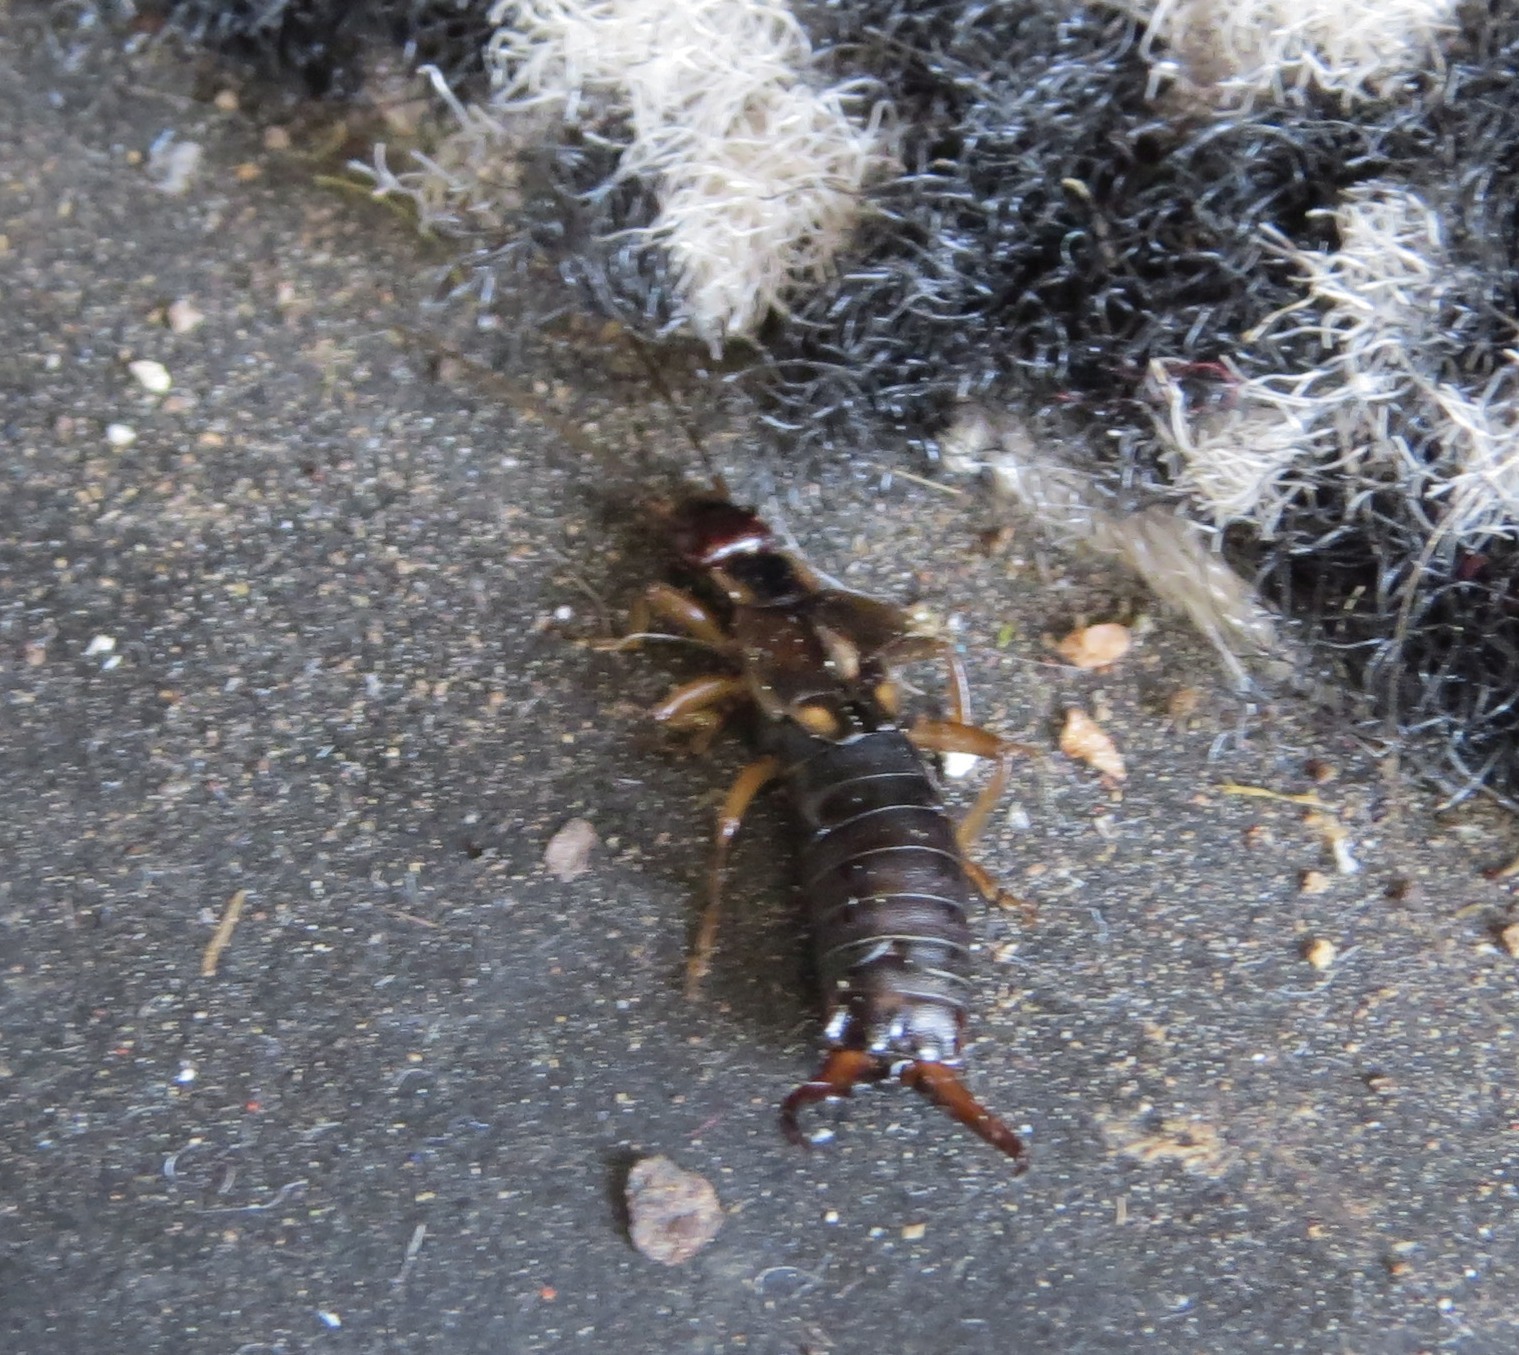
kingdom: Animalia
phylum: Arthropoda
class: Insecta
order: Dermaptera
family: Forficulidae
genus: Forficula
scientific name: Forficula
